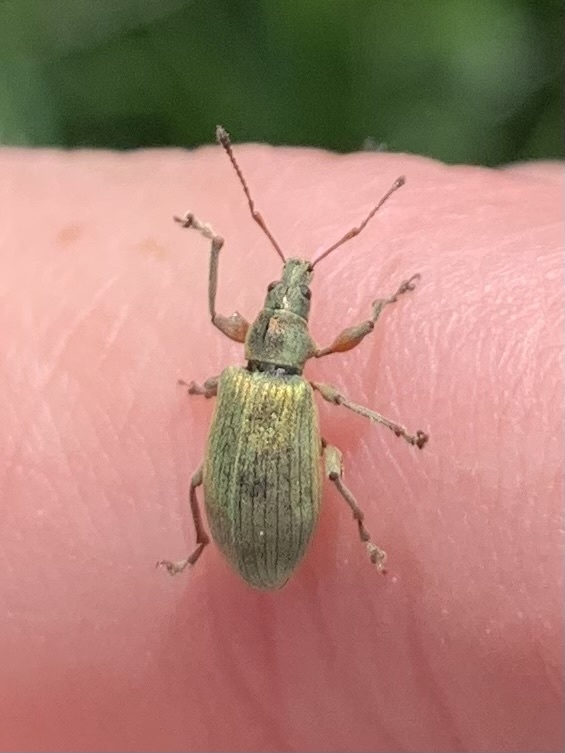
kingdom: Animalia
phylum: Arthropoda
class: Insecta
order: Coleoptera
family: Curculionidae
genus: Phyllobius
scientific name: Phyllobius pomaceus
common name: Green nettle weevil
